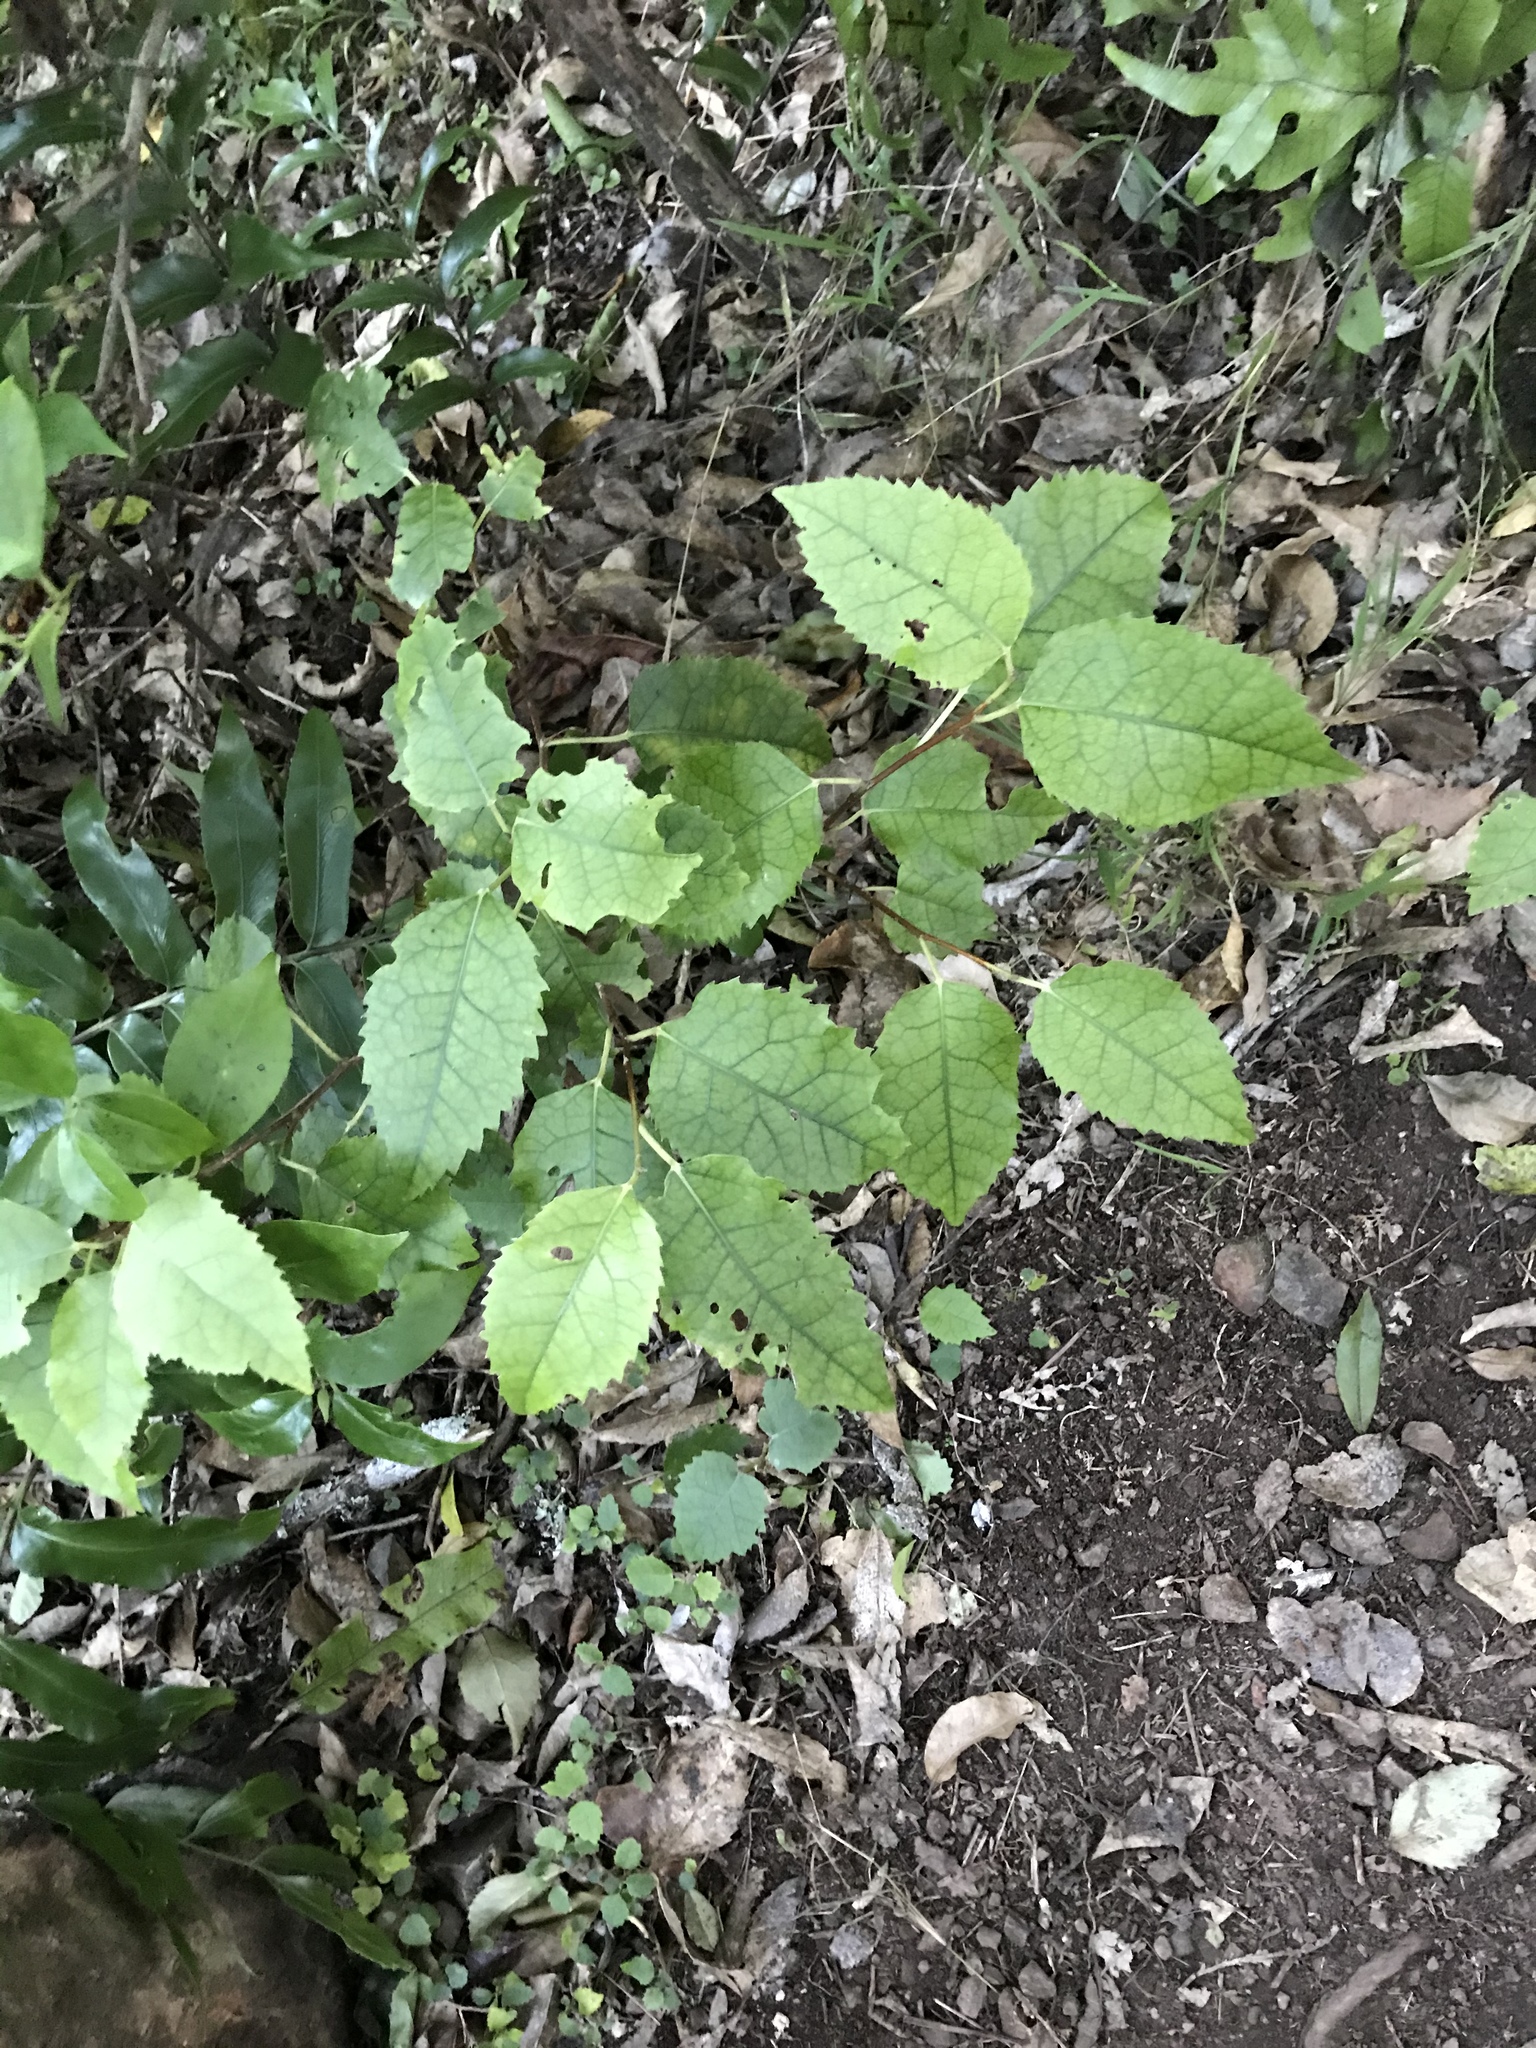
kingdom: Plantae
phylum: Tracheophyta
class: Magnoliopsida
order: Malvales
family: Malvaceae
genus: Hoheria
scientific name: Hoheria populnea
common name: Lacebark
